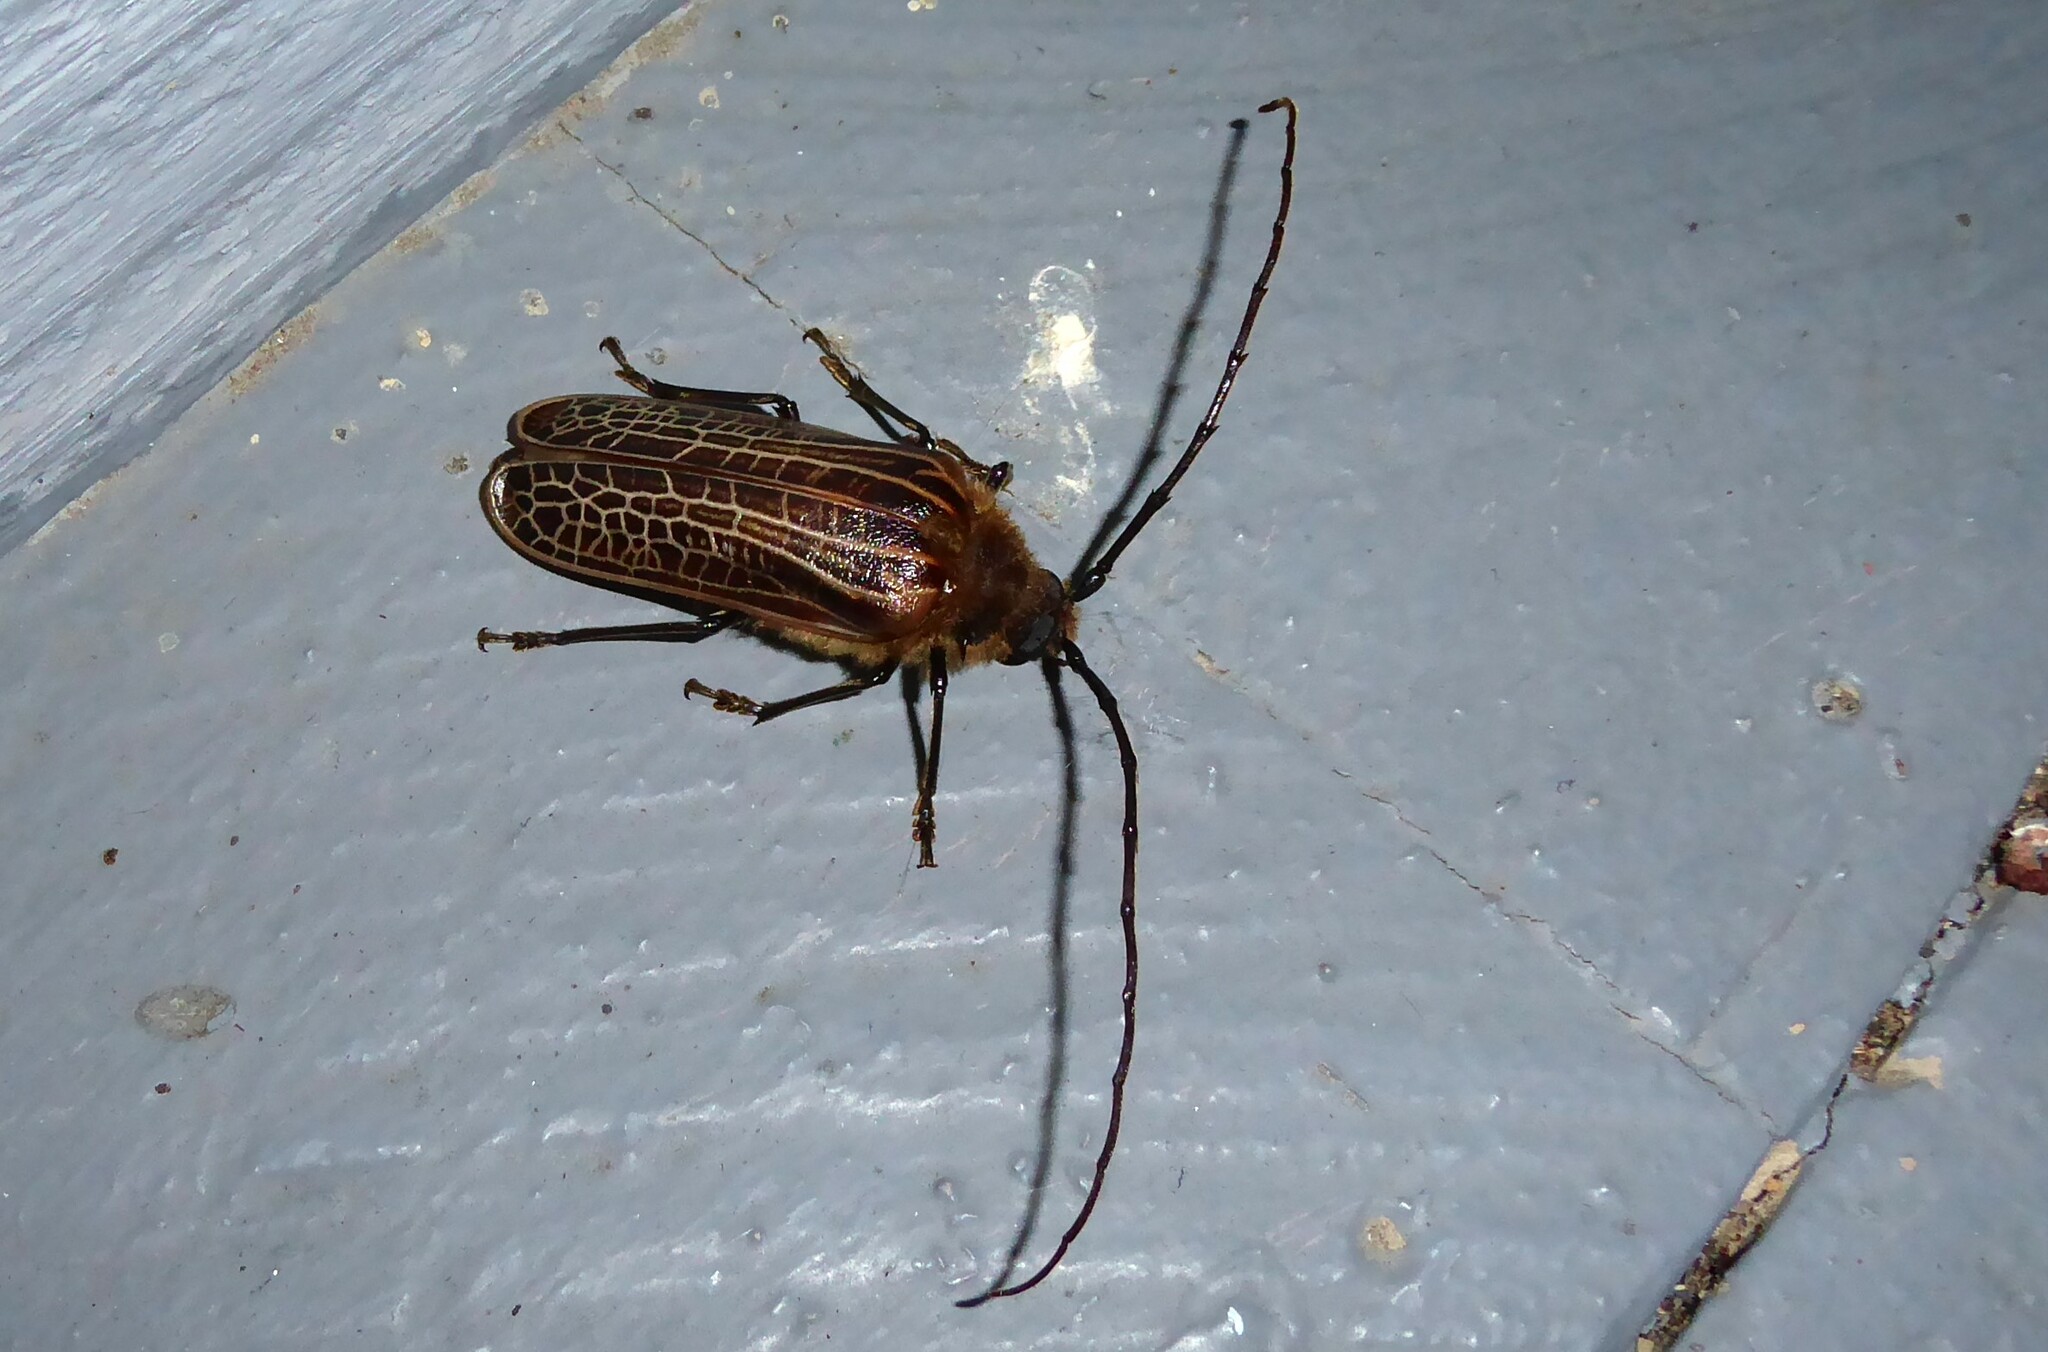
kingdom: Animalia
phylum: Arthropoda
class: Insecta
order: Coleoptera
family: Cerambycidae
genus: Prionoplus
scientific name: Prionoplus reticularis
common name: Huhu beetle
